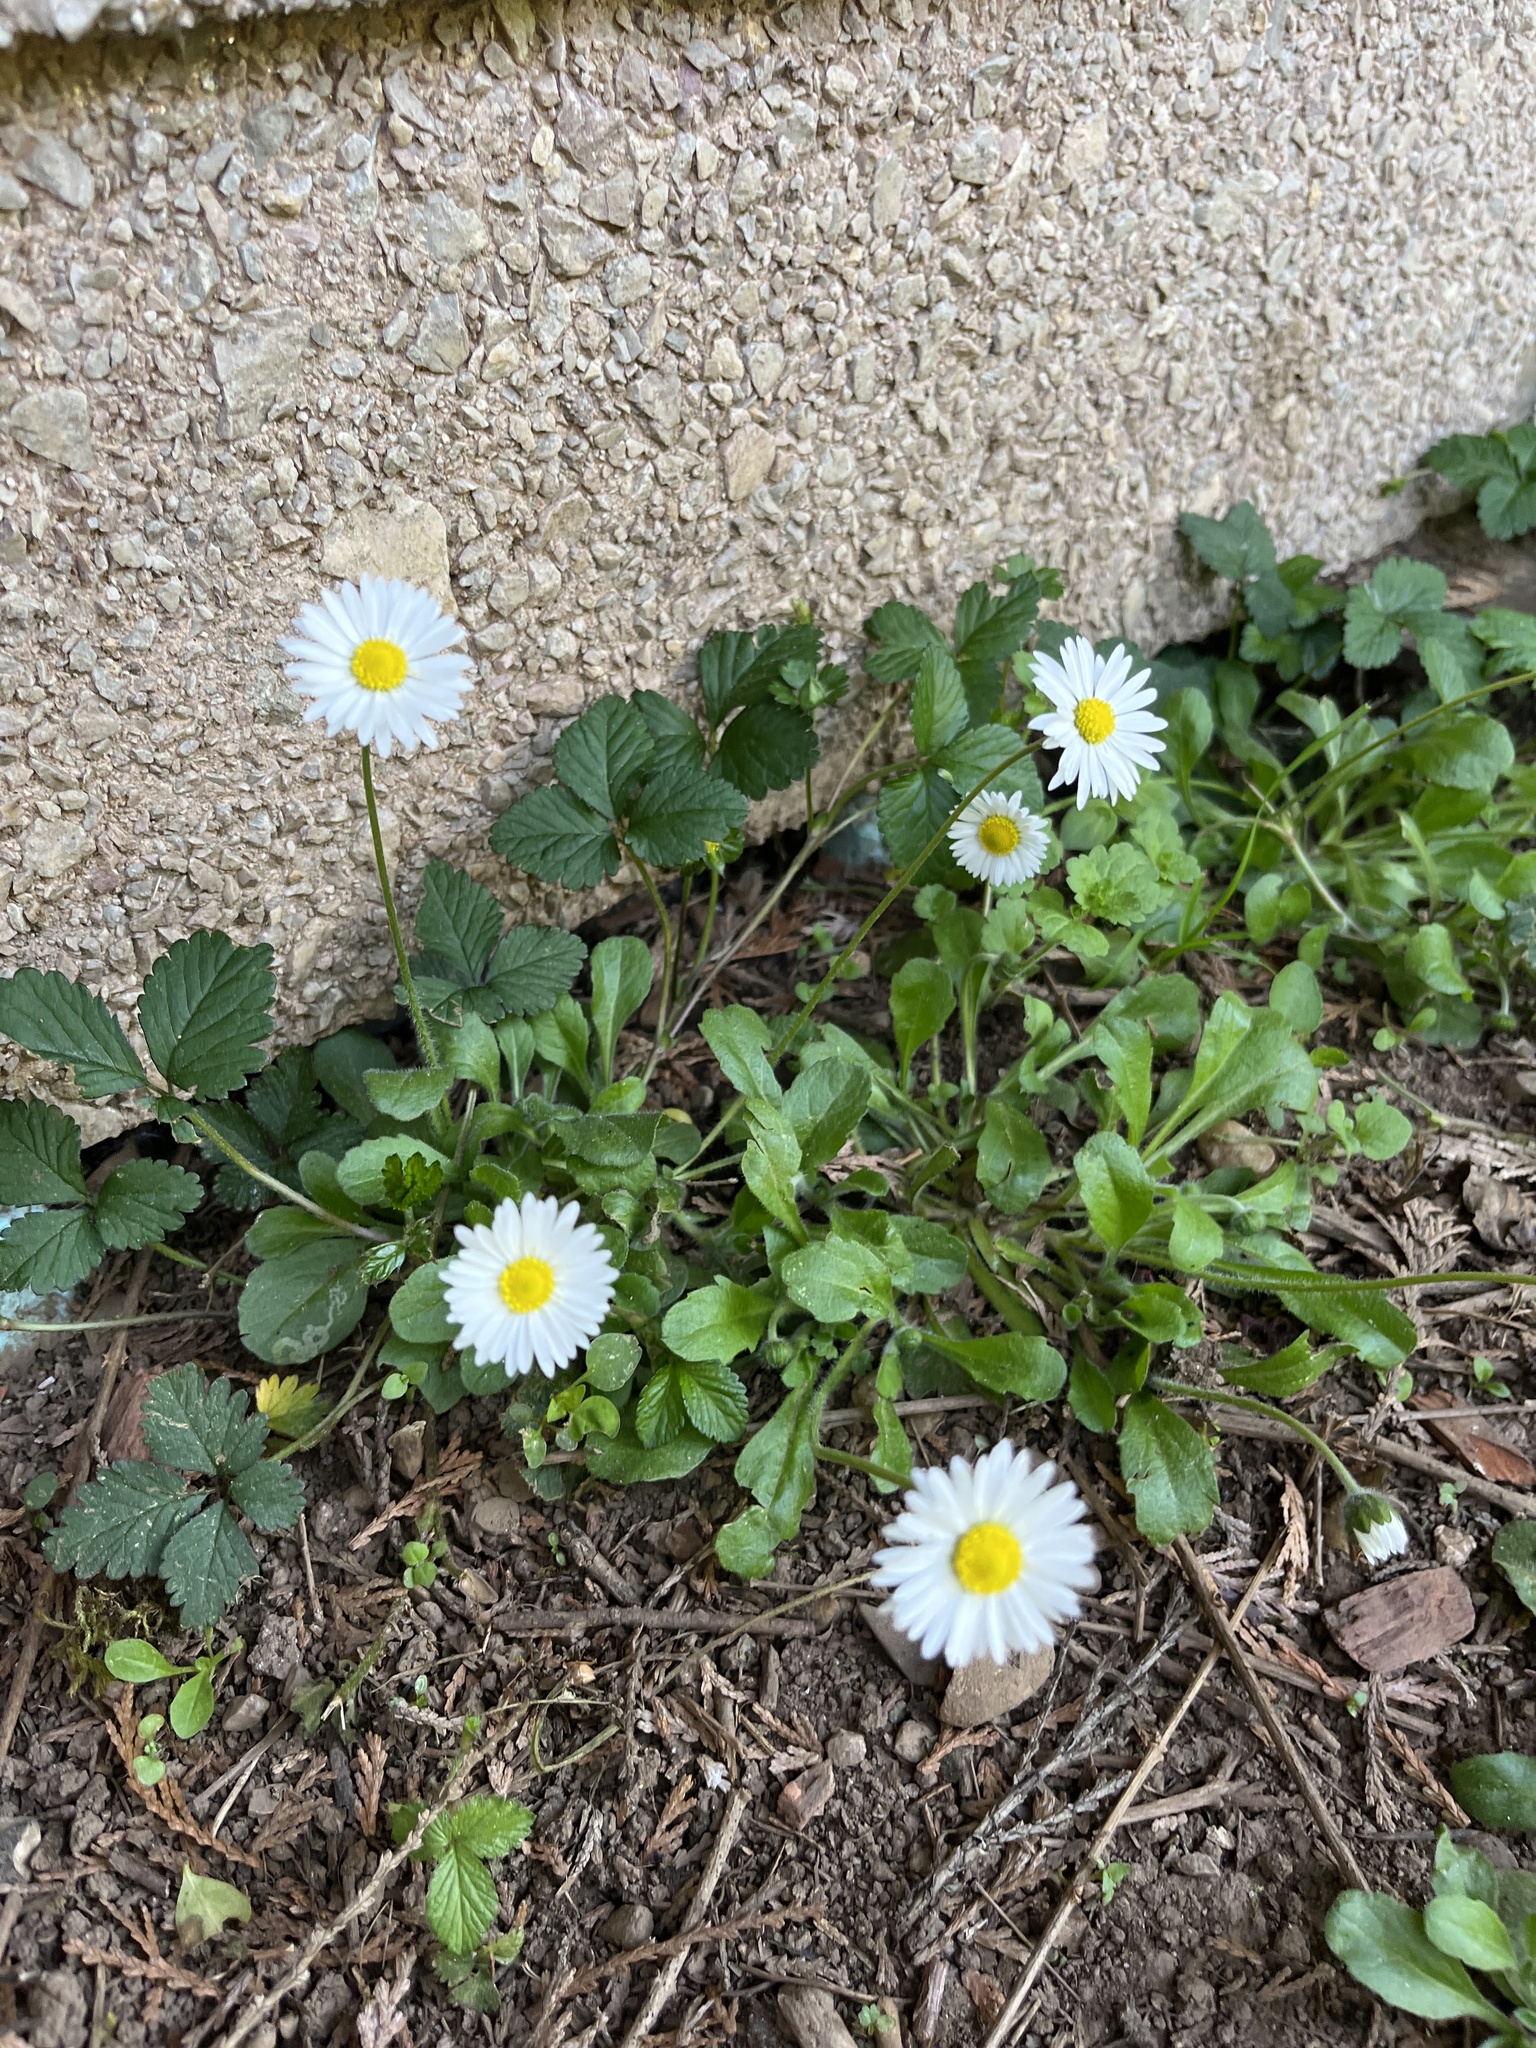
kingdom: Plantae
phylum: Tracheophyta
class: Magnoliopsida
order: Asterales
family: Asteraceae
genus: Bellis
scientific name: Bellis perennis
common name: Lawndaisy
